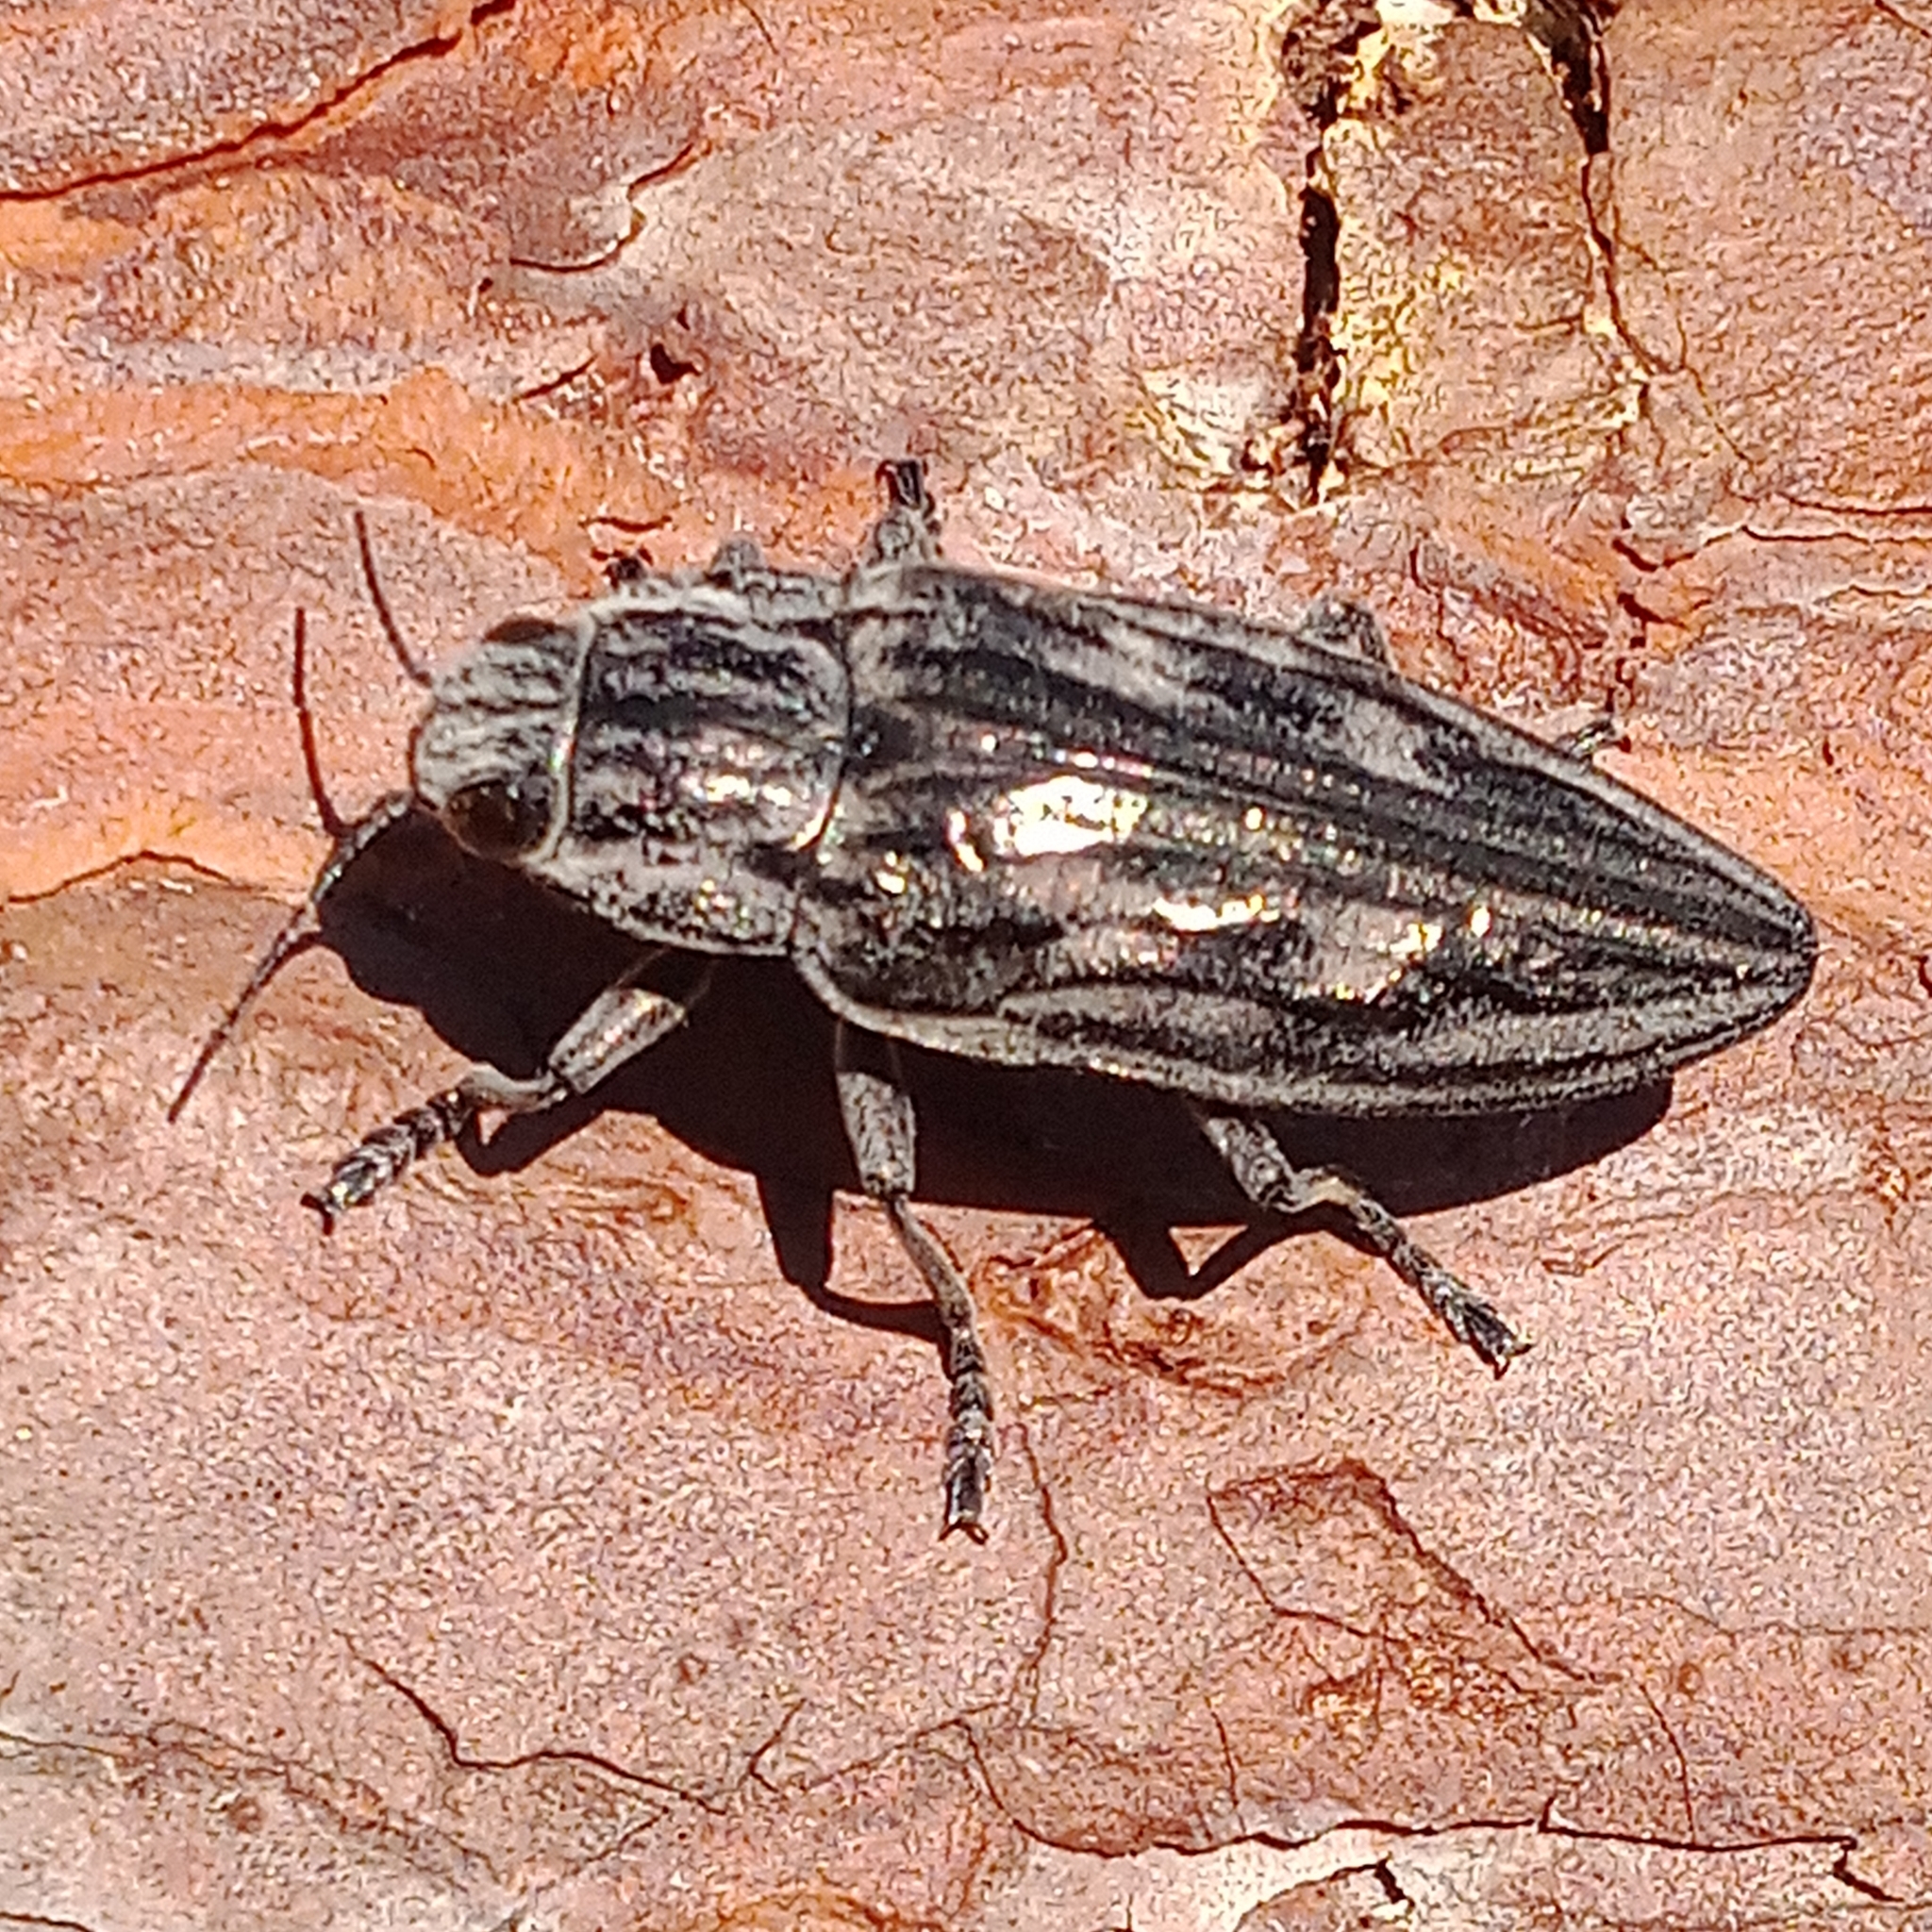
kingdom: Animalia
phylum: Arthropoda
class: Insecta
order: Coleoptera
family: Buprestidae
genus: Chalcophora
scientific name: Chalcophora mariana
